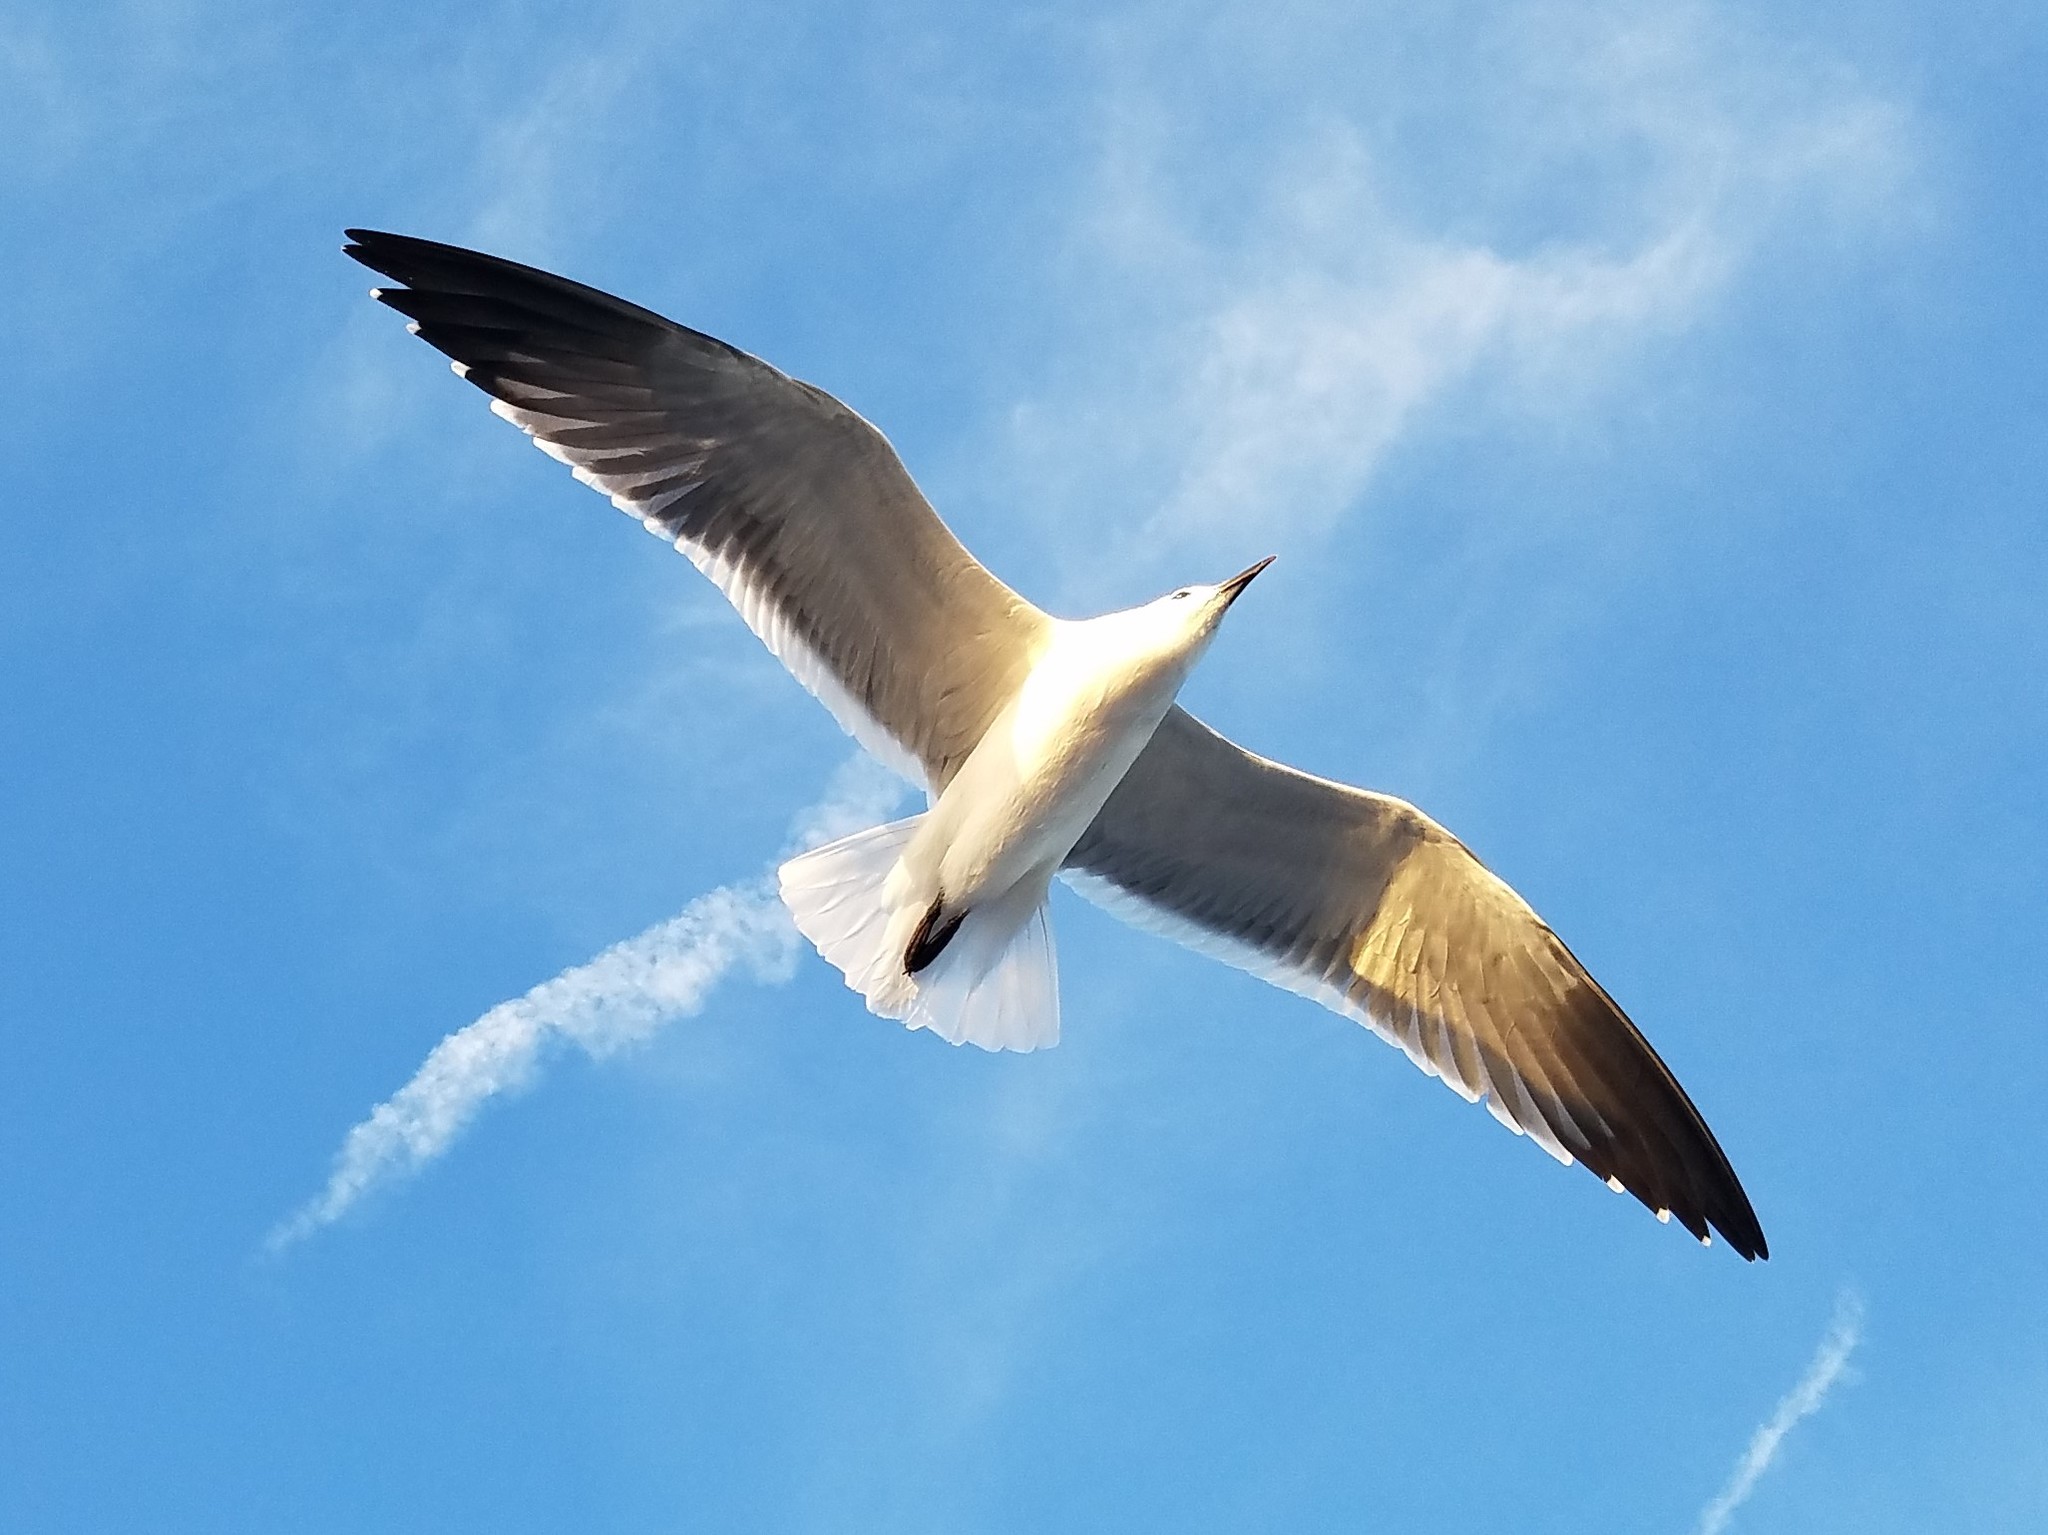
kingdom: Animalia
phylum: Chordata
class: Aves
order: Charadriiformes
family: Laridae
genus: Leucophaeus
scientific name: Leucophaeus atricilla
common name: Laughing gull
